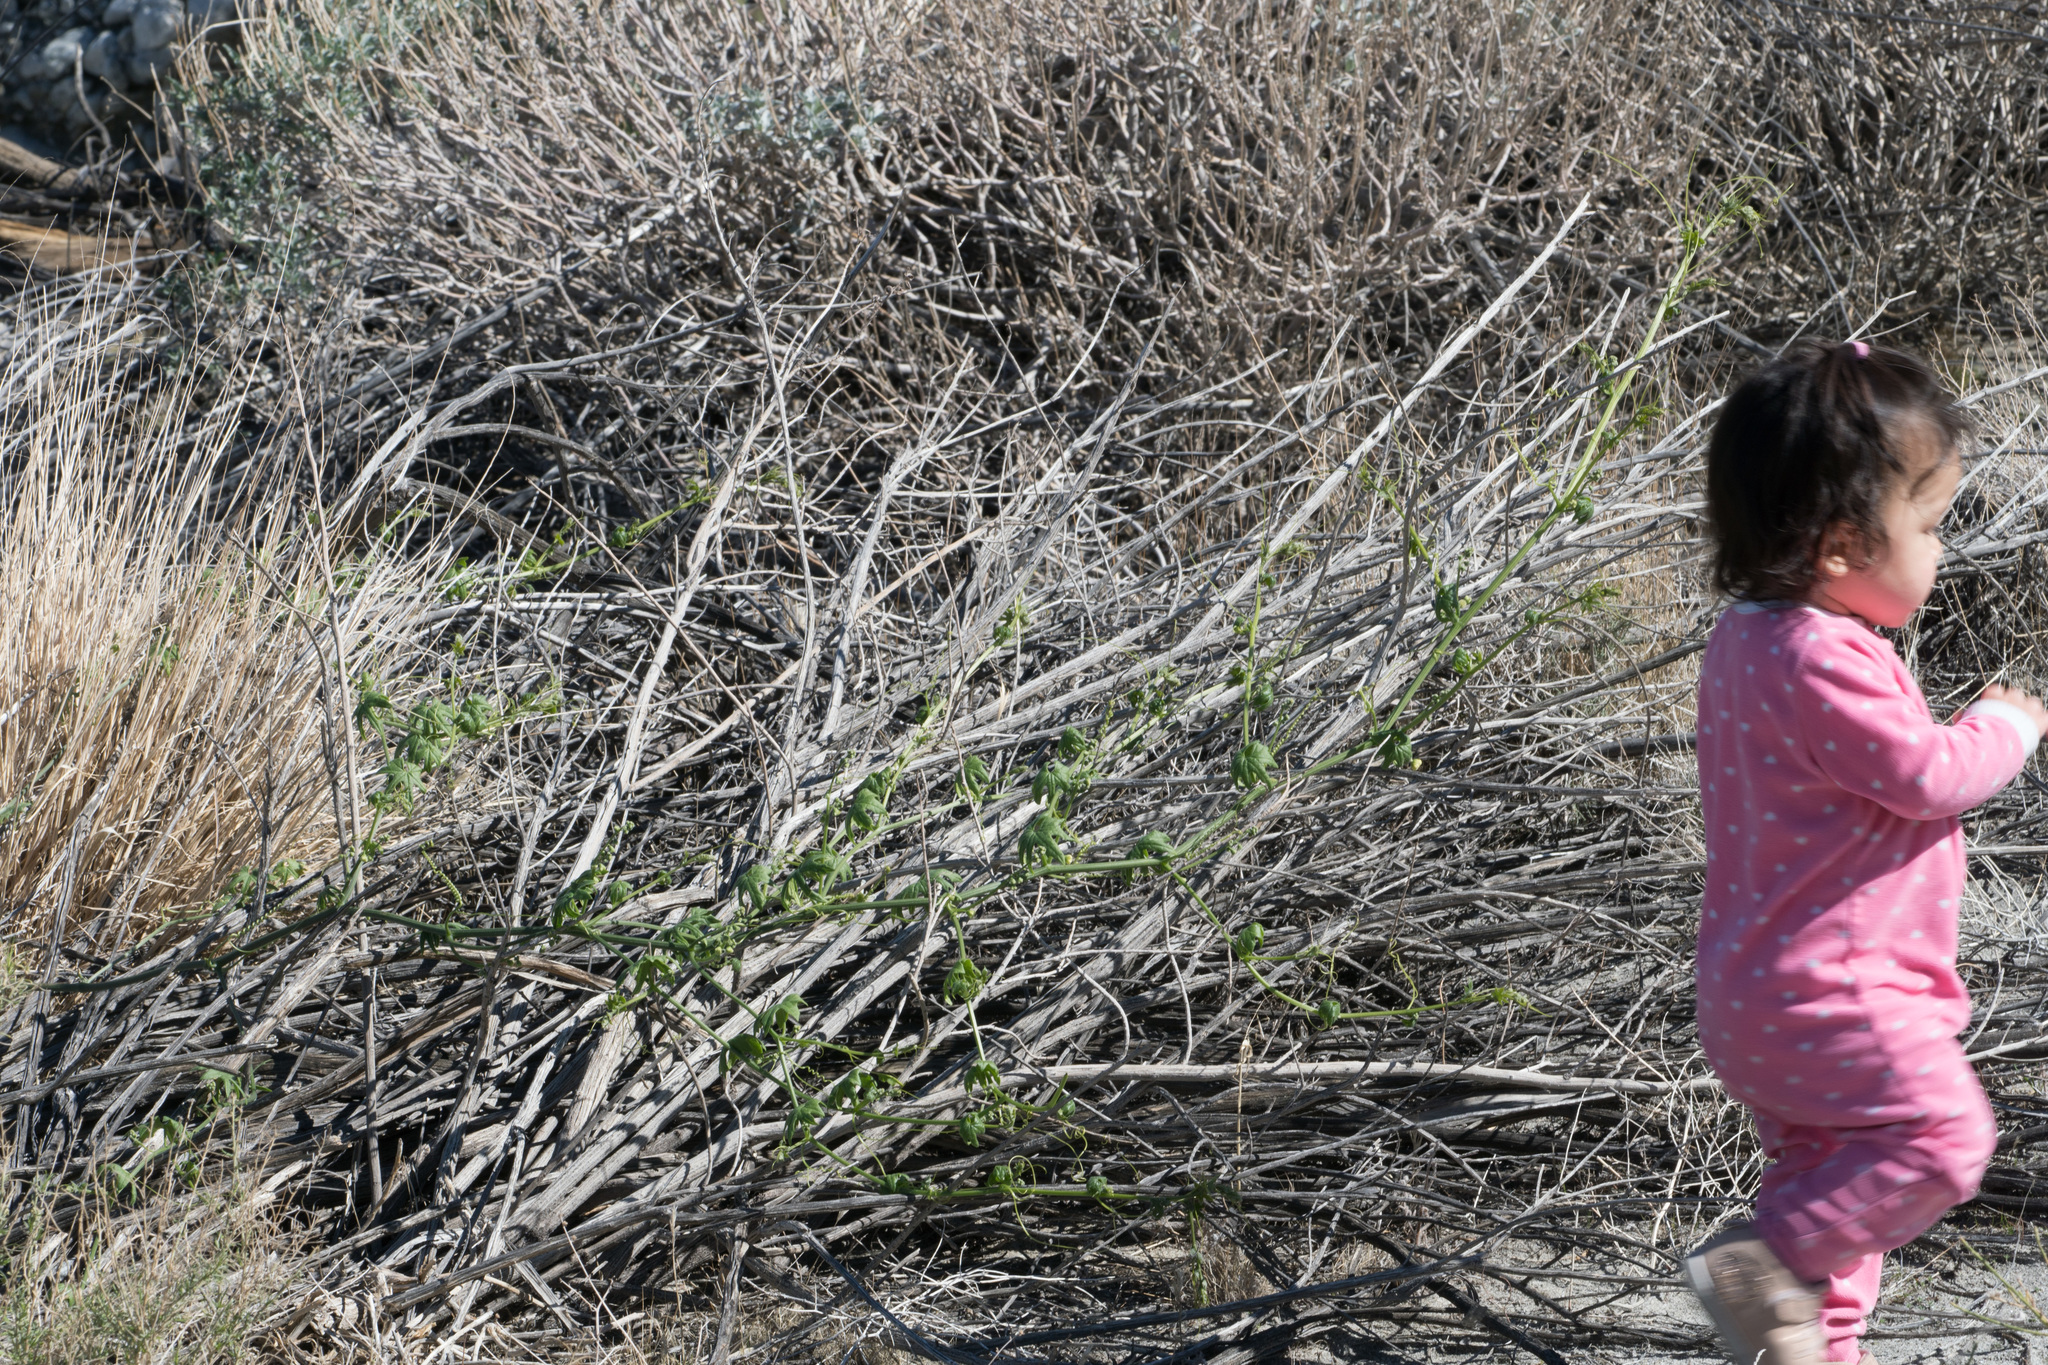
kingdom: Plantae
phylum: Tracheophyta
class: Magnoliopsida
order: Cucurbitales
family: Cucurbitaceae
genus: Marah
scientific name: Marah macrocarpa
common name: Cucamonga manroot
